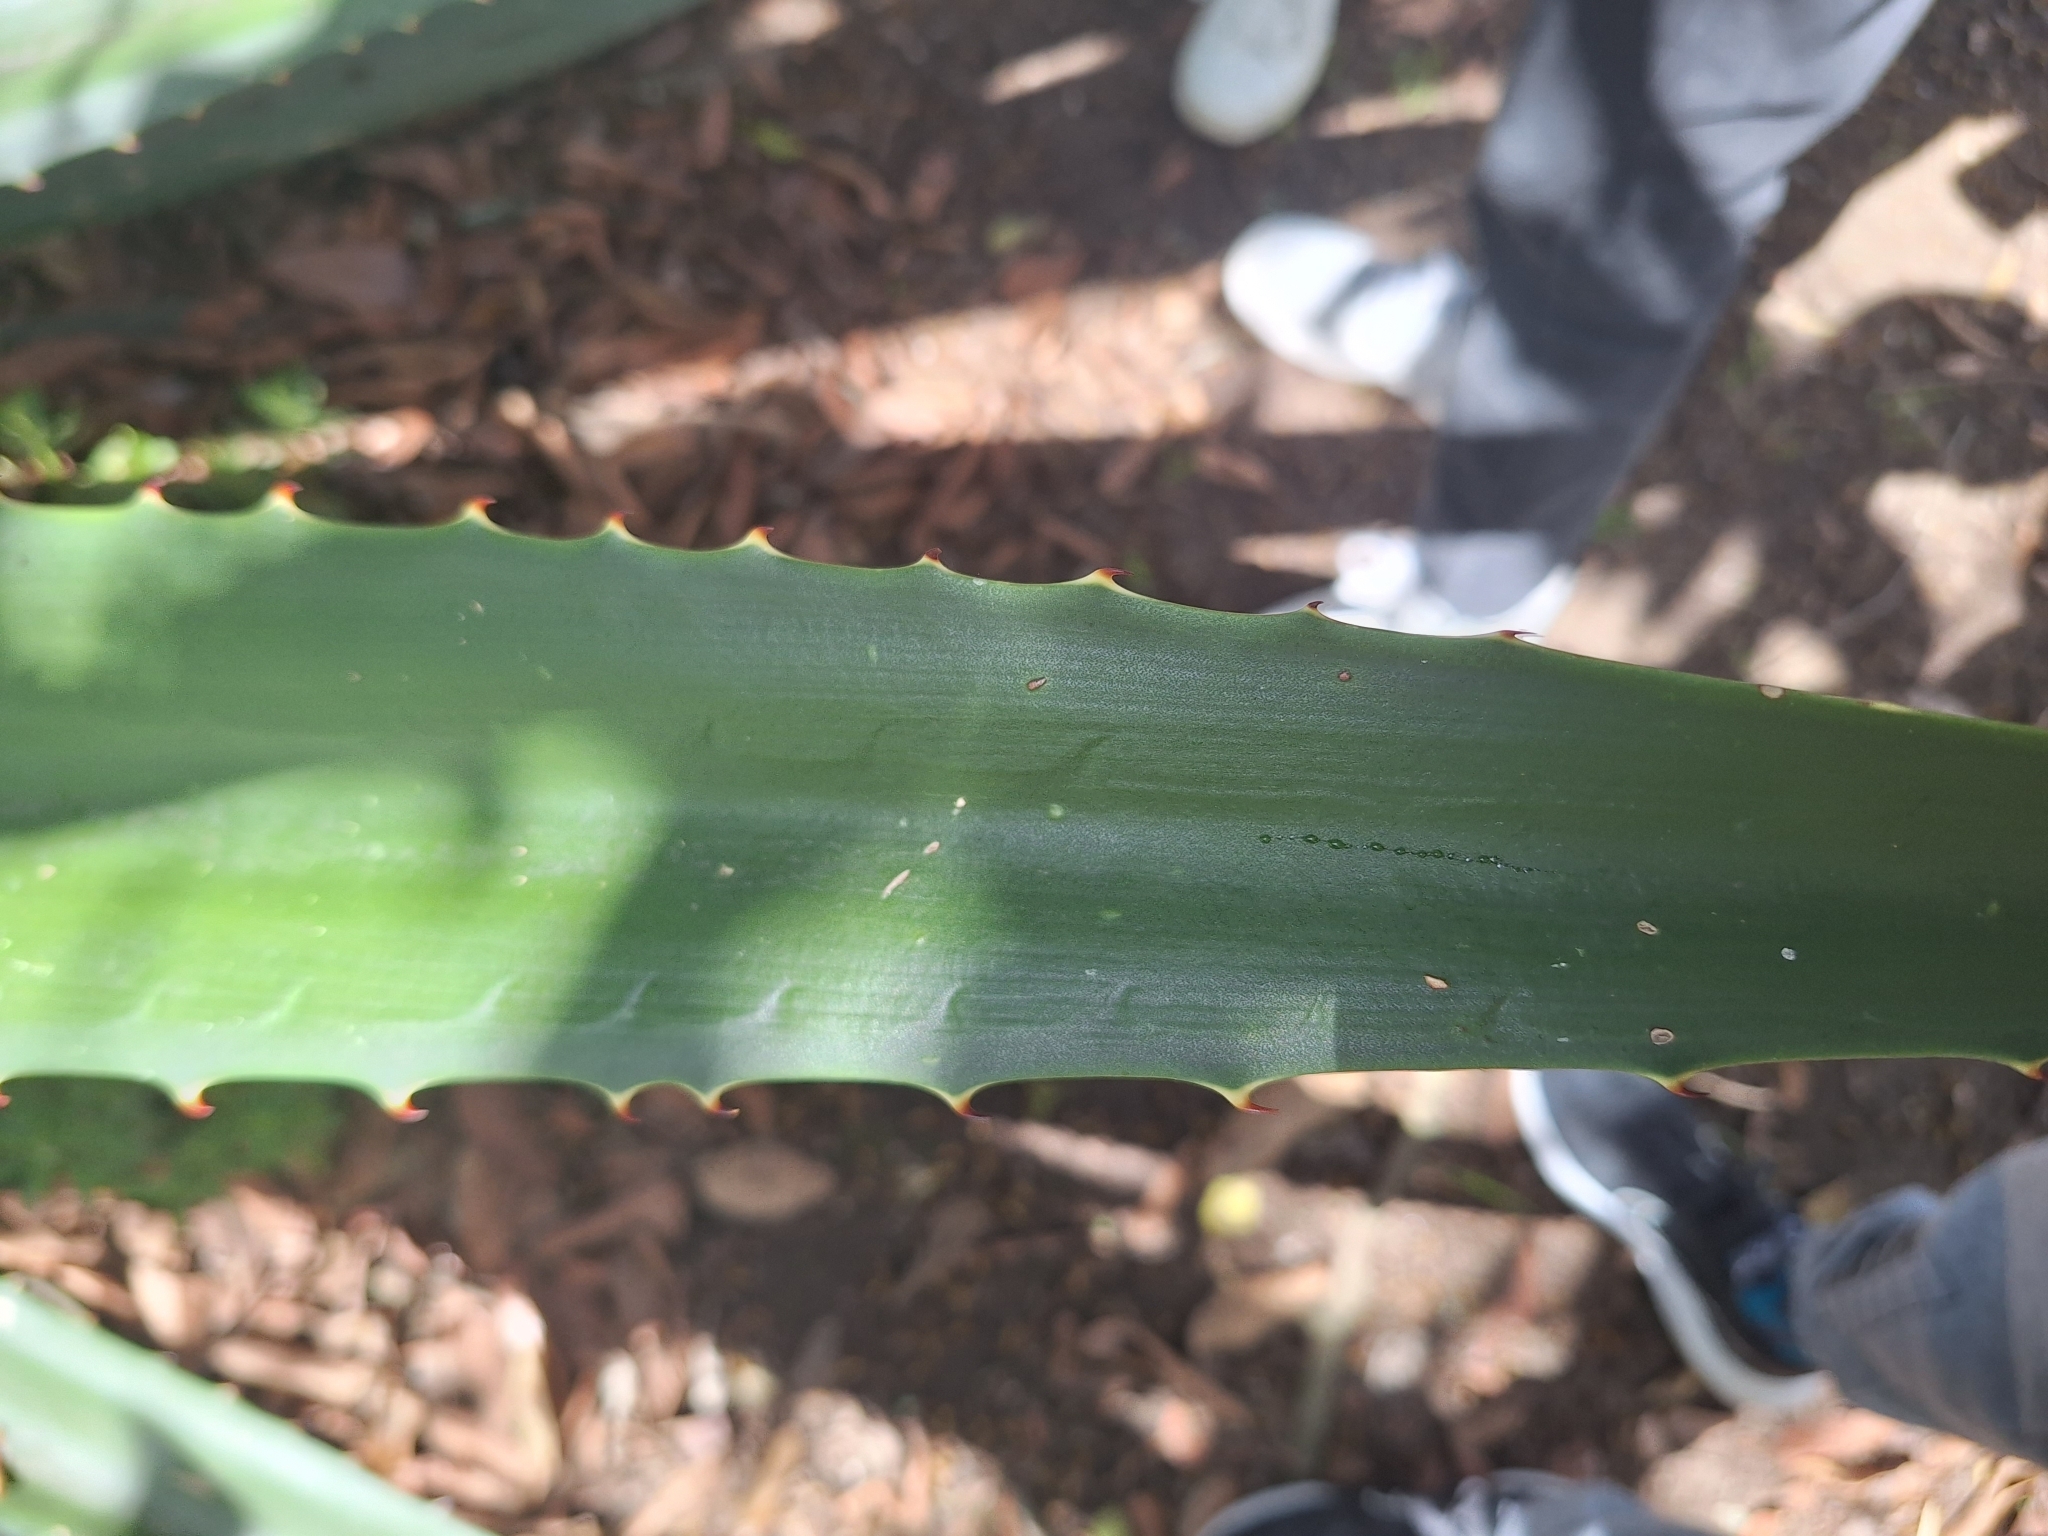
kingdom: Plantae
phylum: Tracheophyta
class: Liliopsida
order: Asparagales
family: Asparagaceae
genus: Furcraea
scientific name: Furcraea andina
